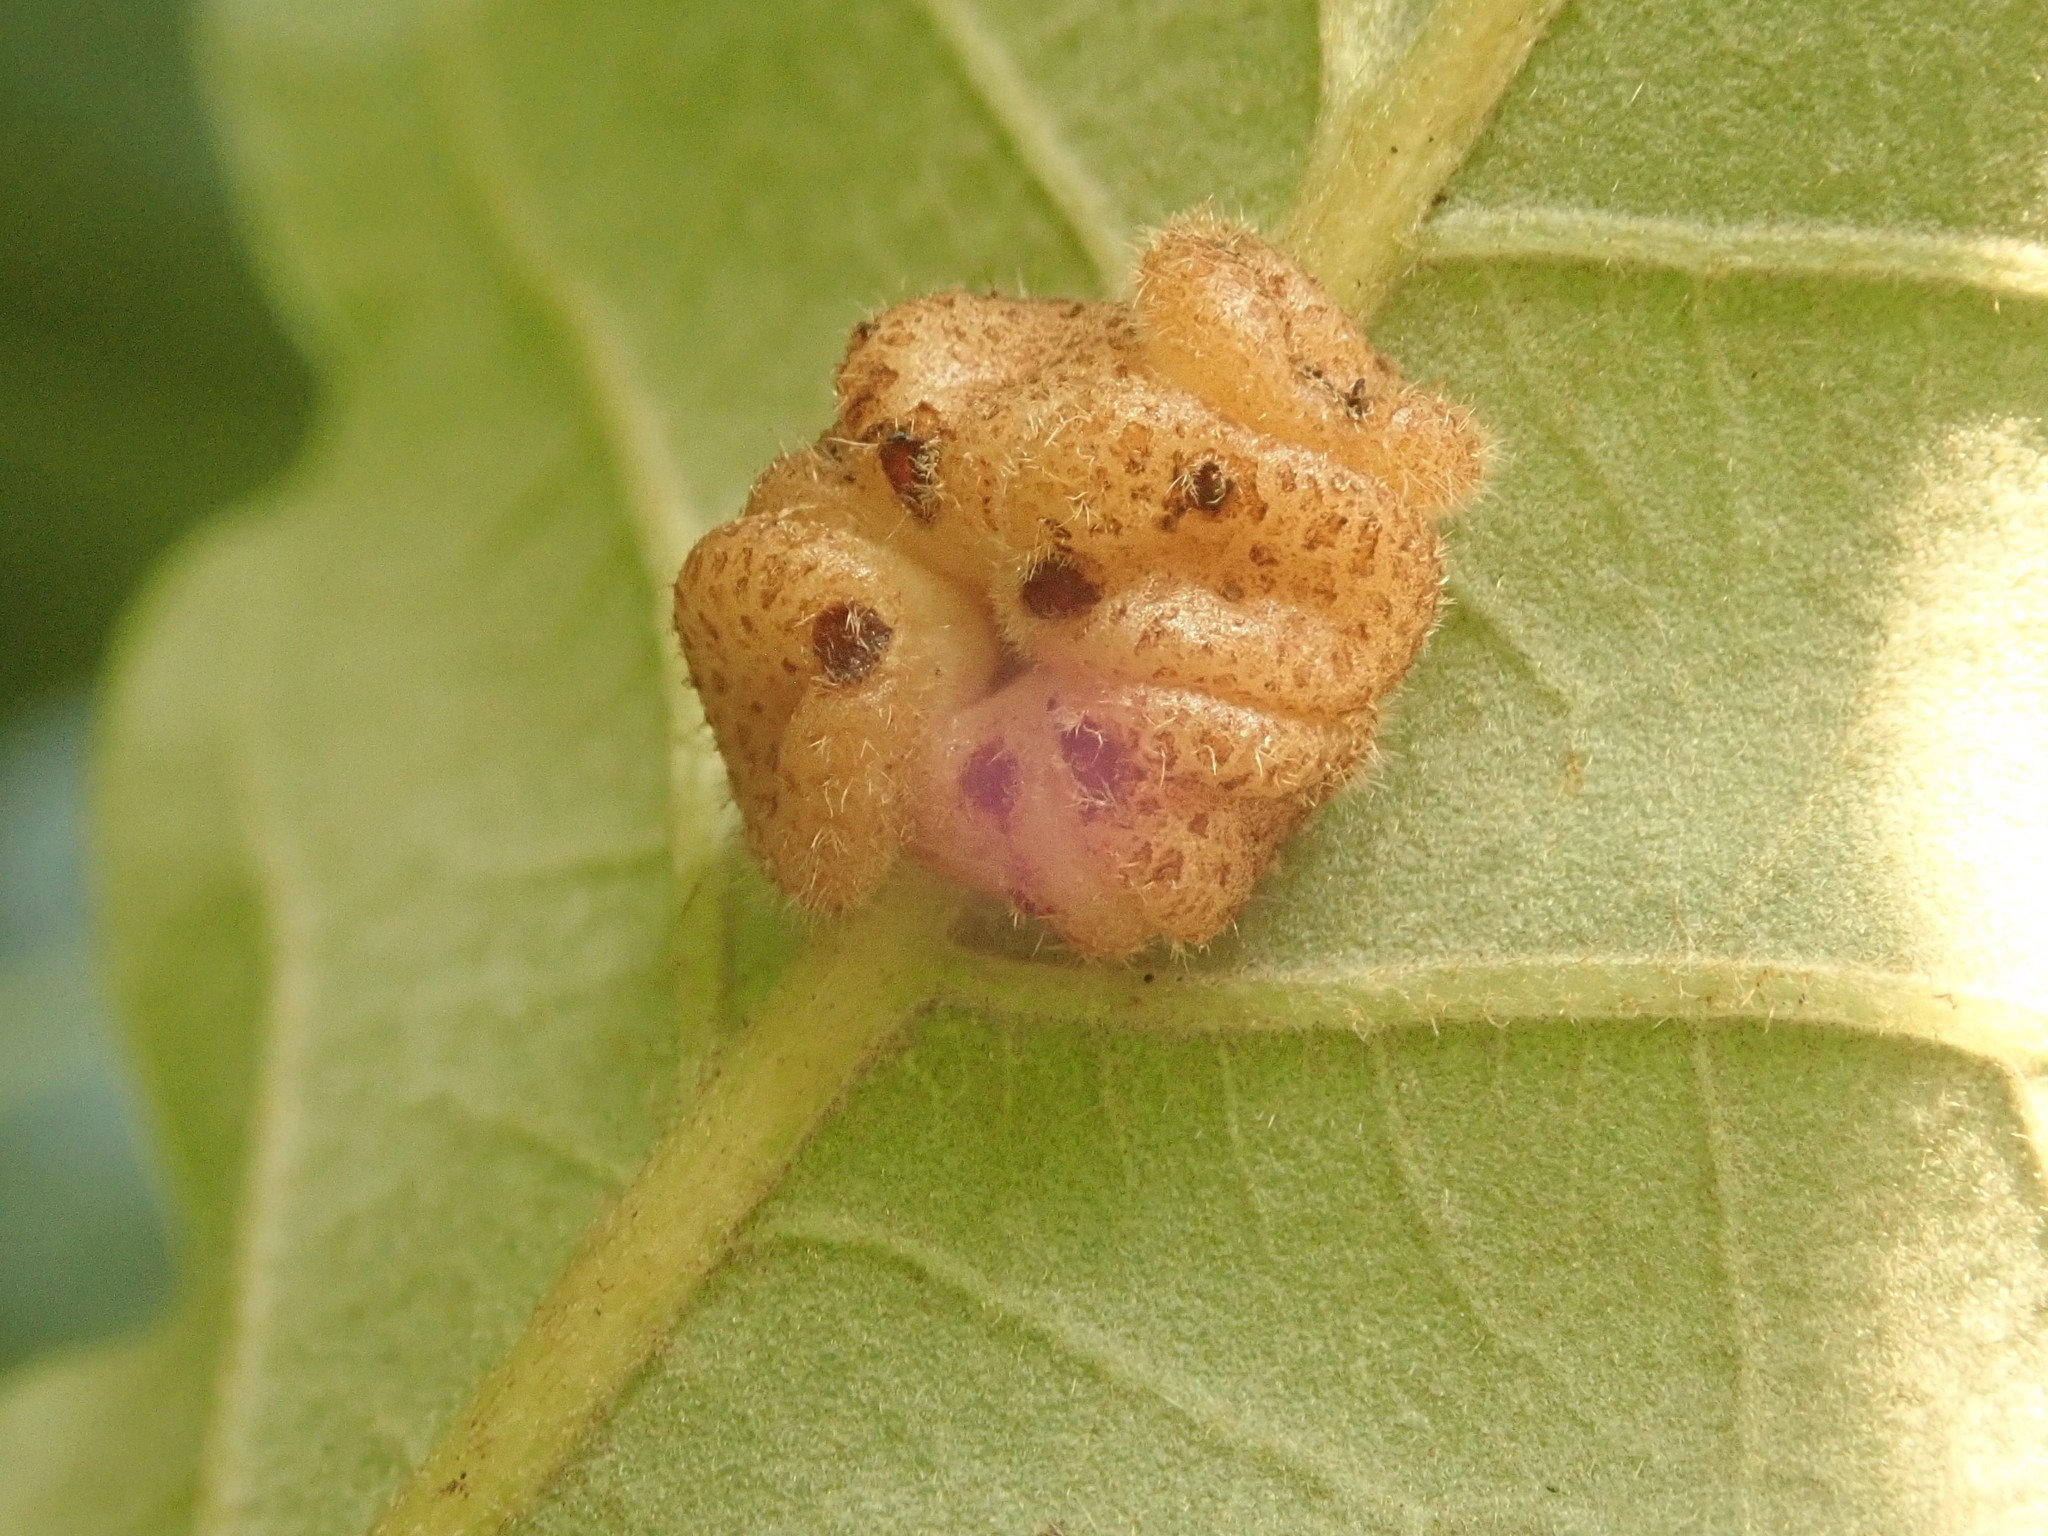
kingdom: Animalia
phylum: Arthropoda
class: Insecta
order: Hymenoptera
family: Cynipidae
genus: Andricus
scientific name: Andricus
